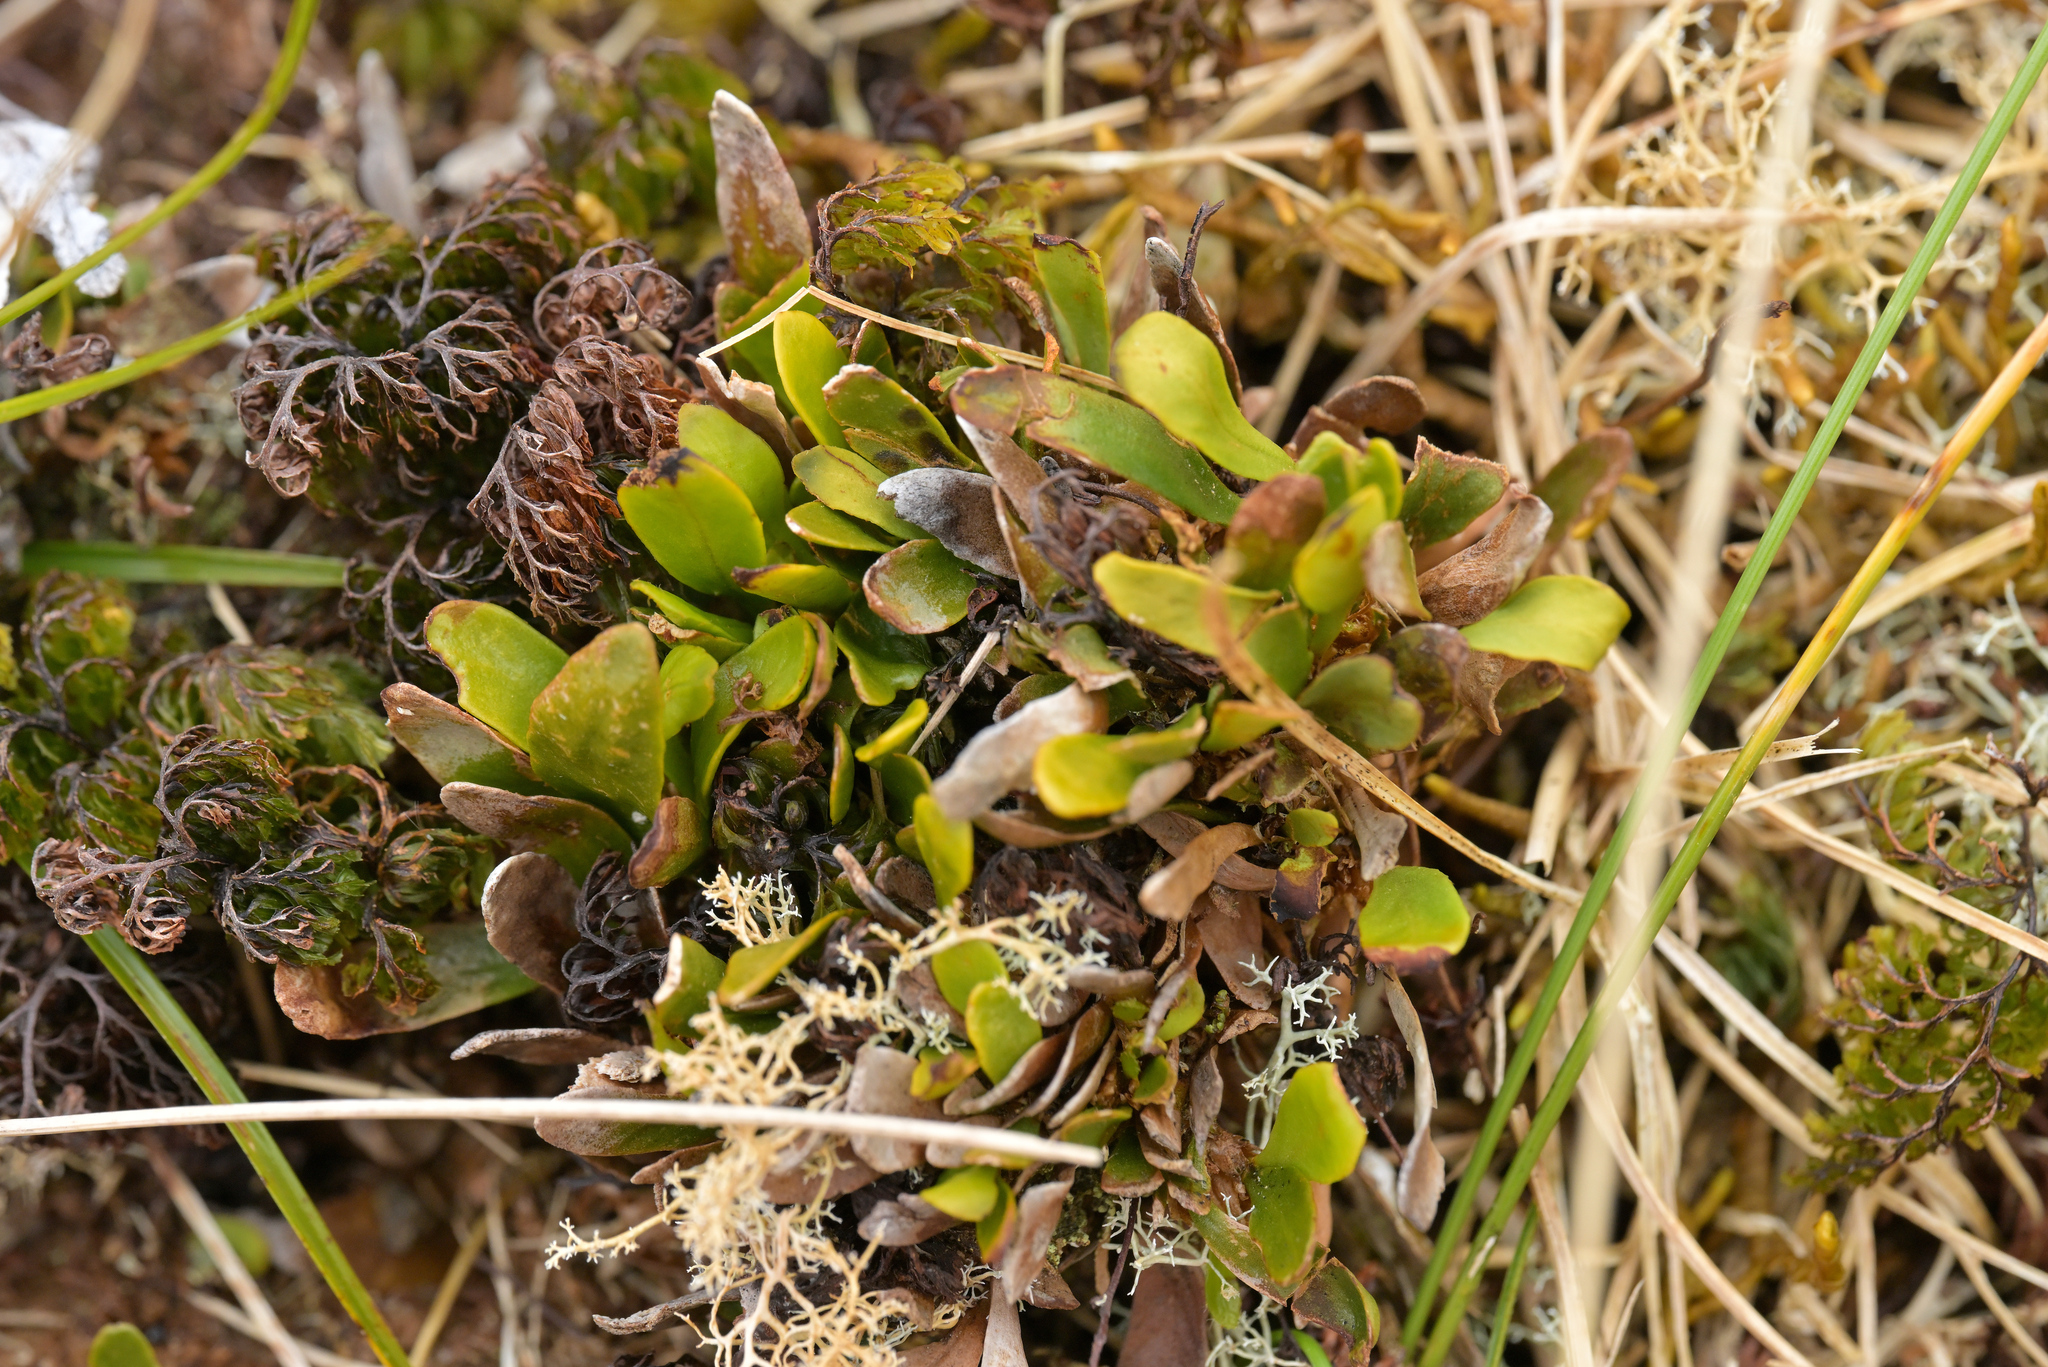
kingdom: Plantae
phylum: Tracheophyta
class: Polypodiopsida
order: Polypodiales
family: Polypodiaceae
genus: Notogrammitis
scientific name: Notogrammitis crassior
